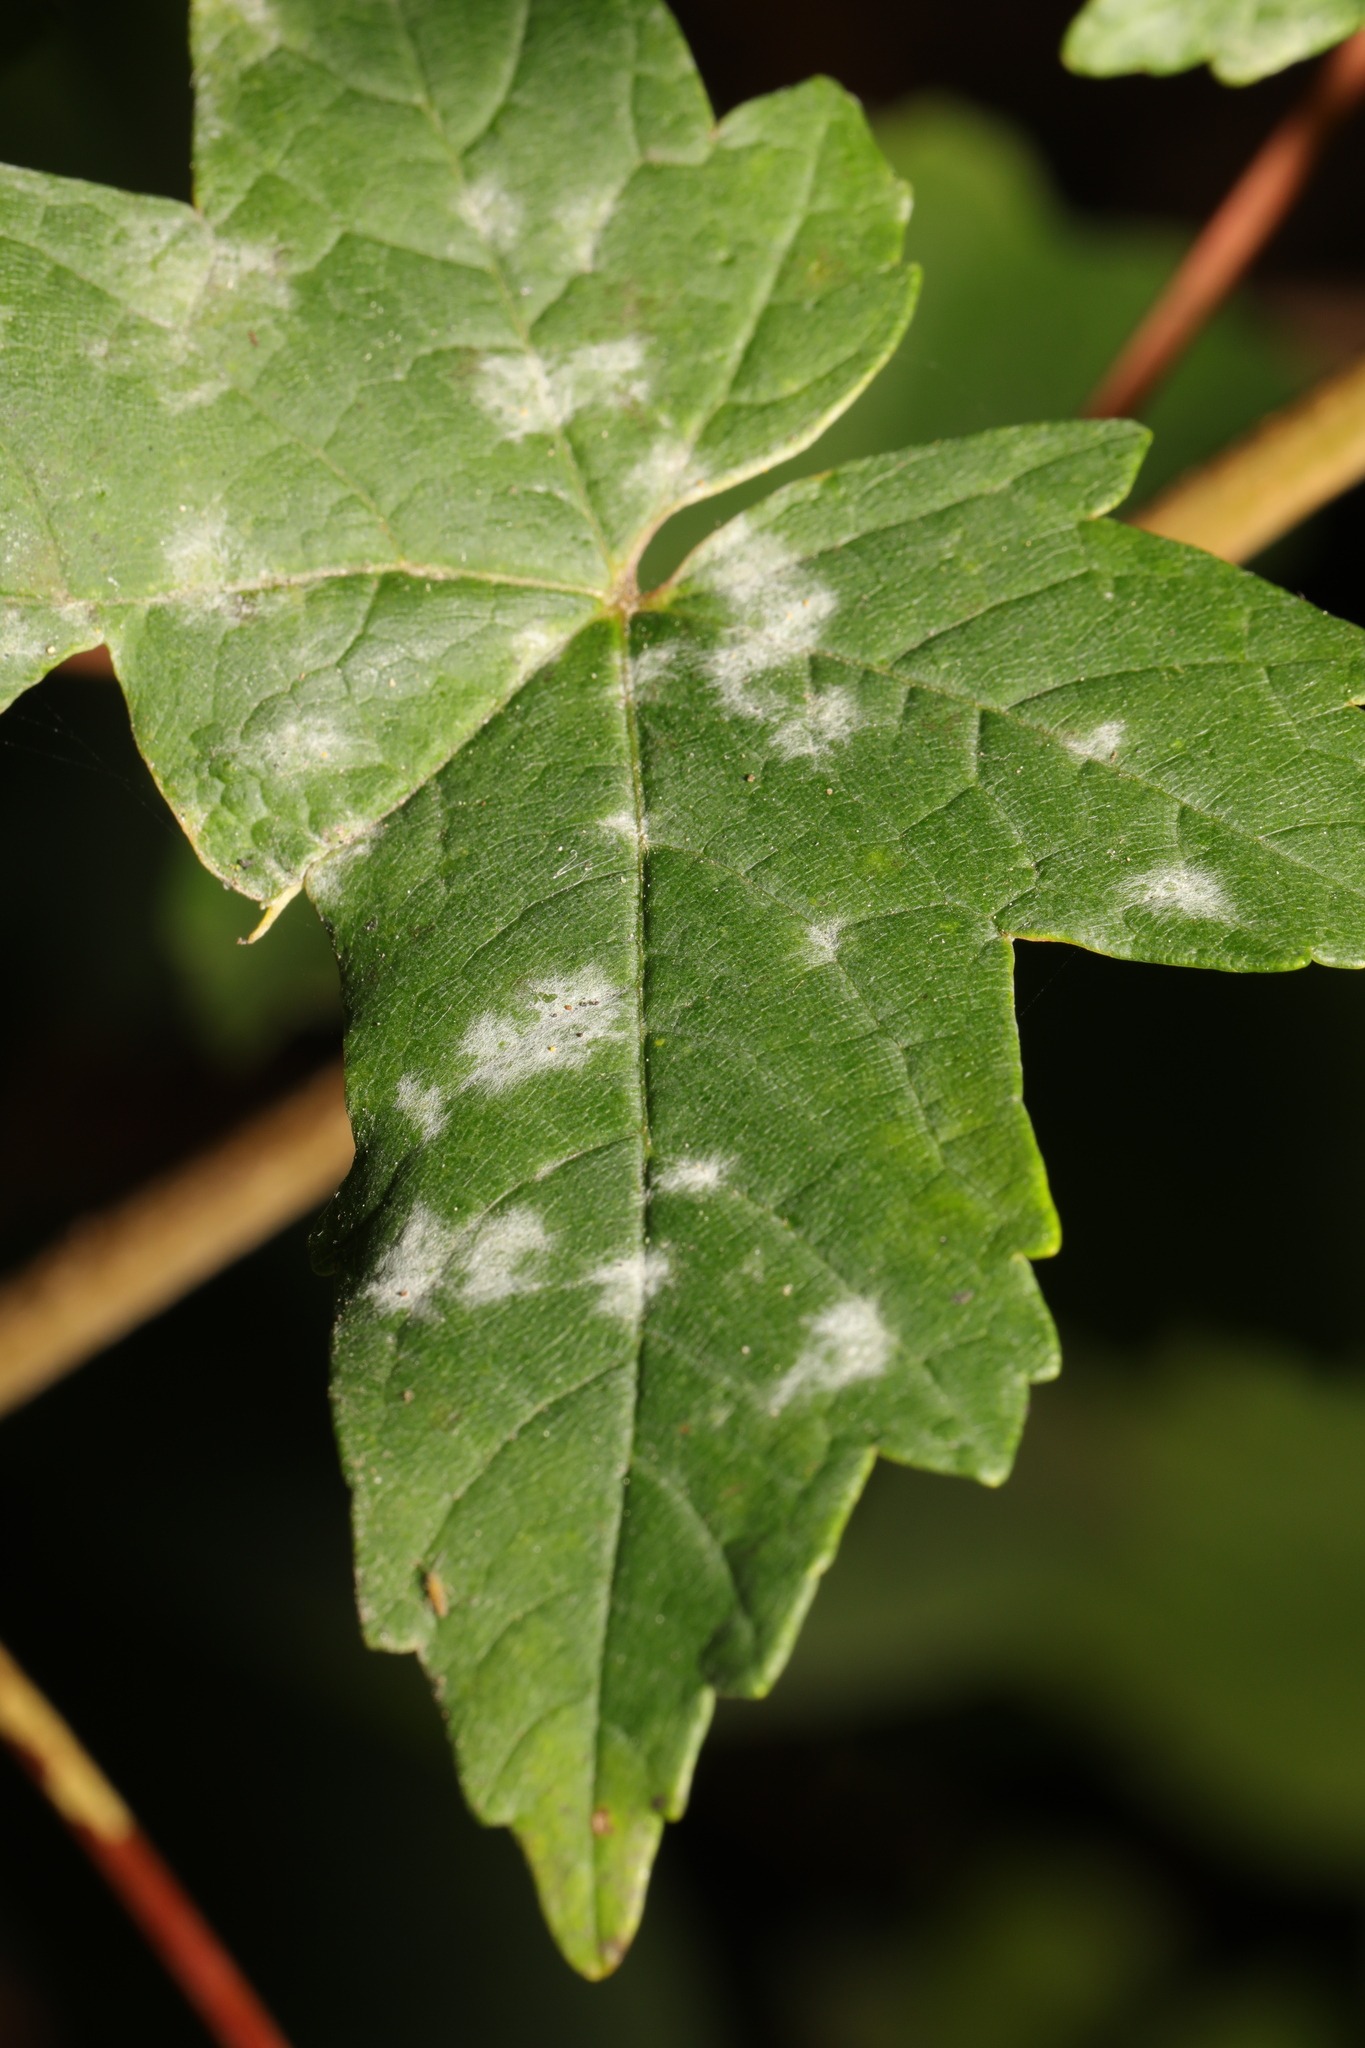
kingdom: Fungi
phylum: Ascomycota
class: Leotiomycetes
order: Helotiales
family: Erysiphaceae
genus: Sawadaea
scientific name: Sawadaea bicornis
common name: Maple mildew
